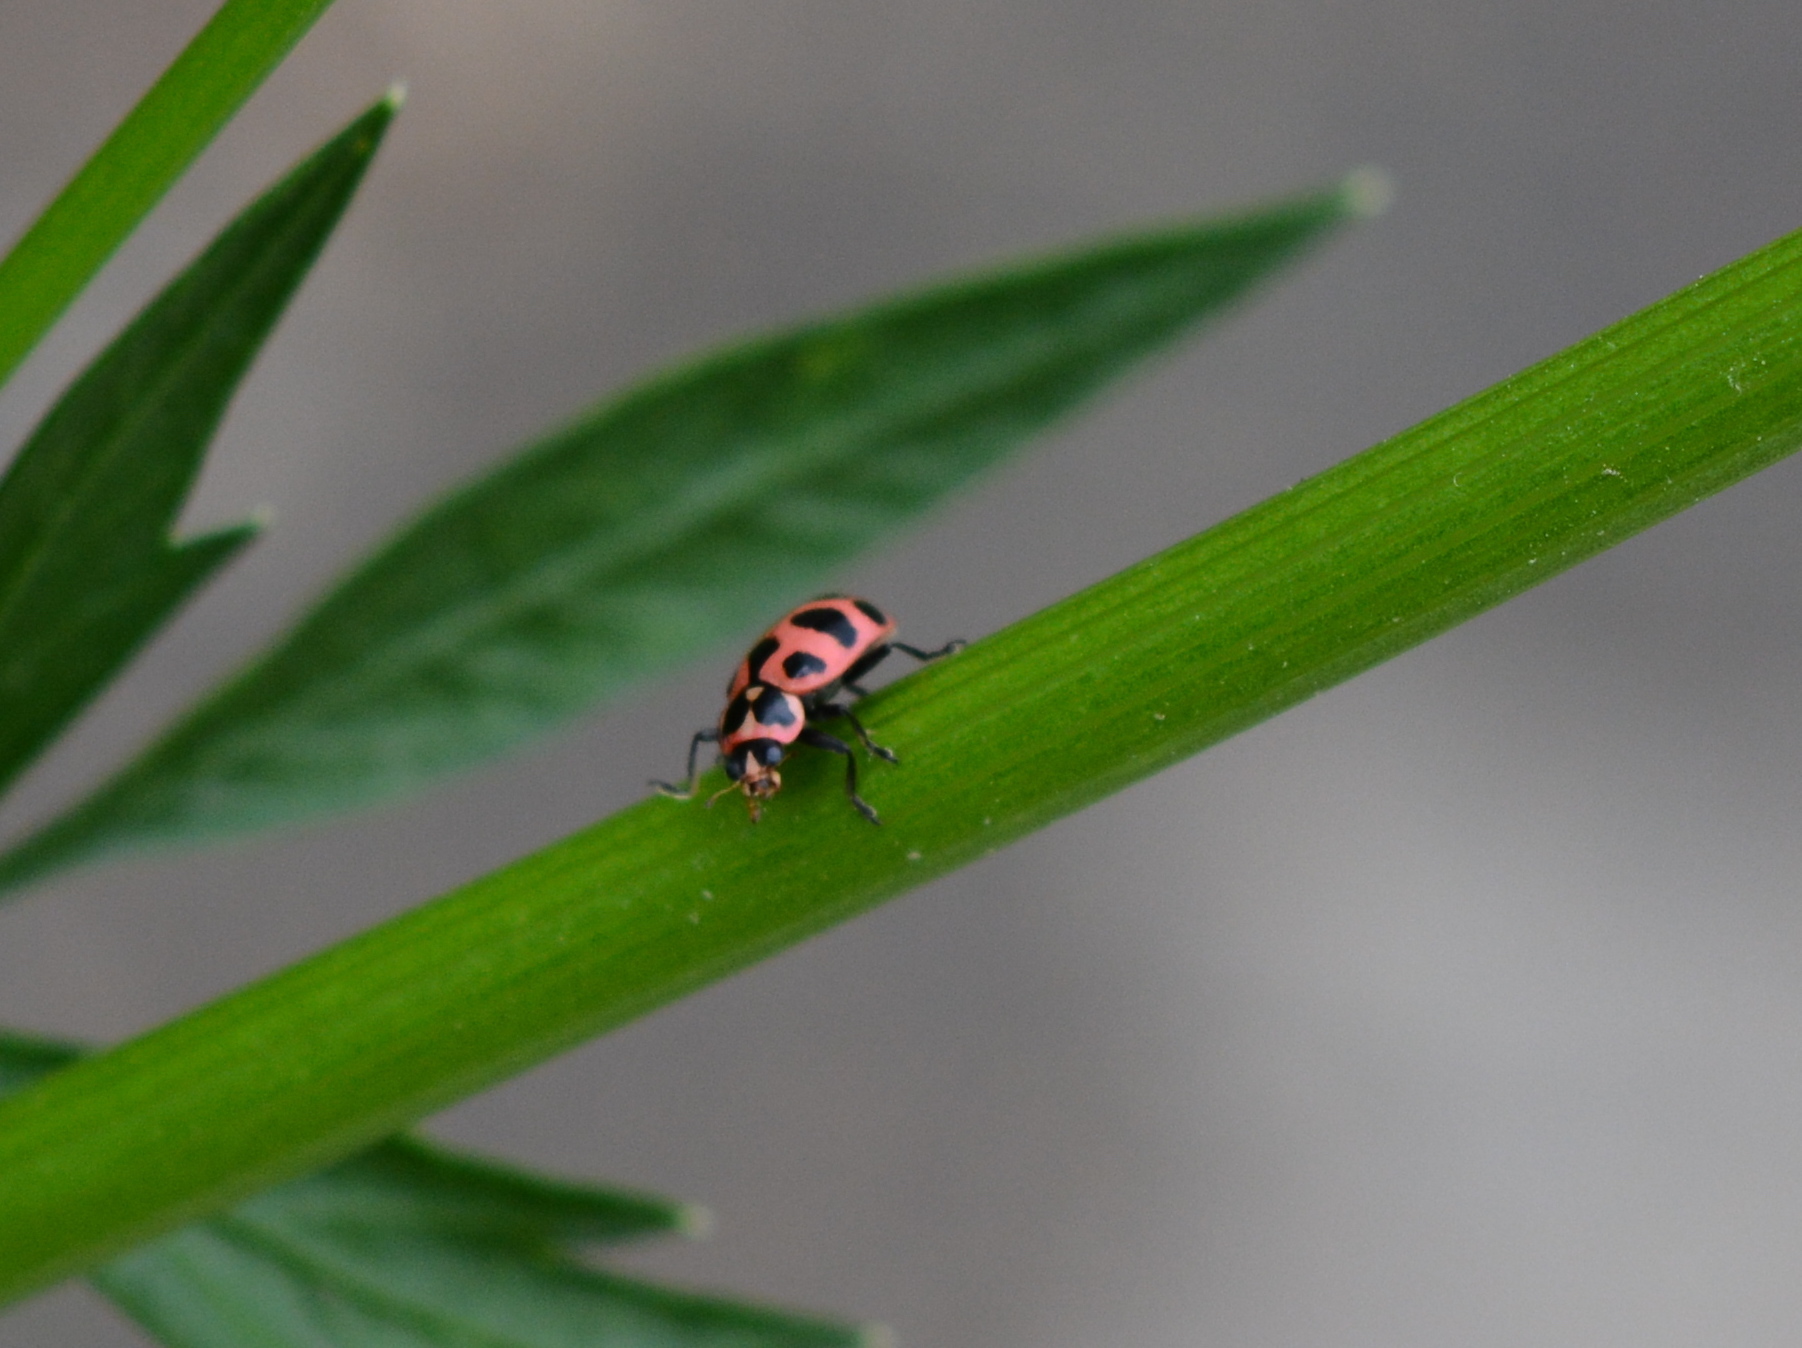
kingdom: Animalia
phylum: Arthropoda
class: Insecta
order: Coleoptera
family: Coccinellidae
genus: Coleomegilla
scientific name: Coleomegilla maculata
